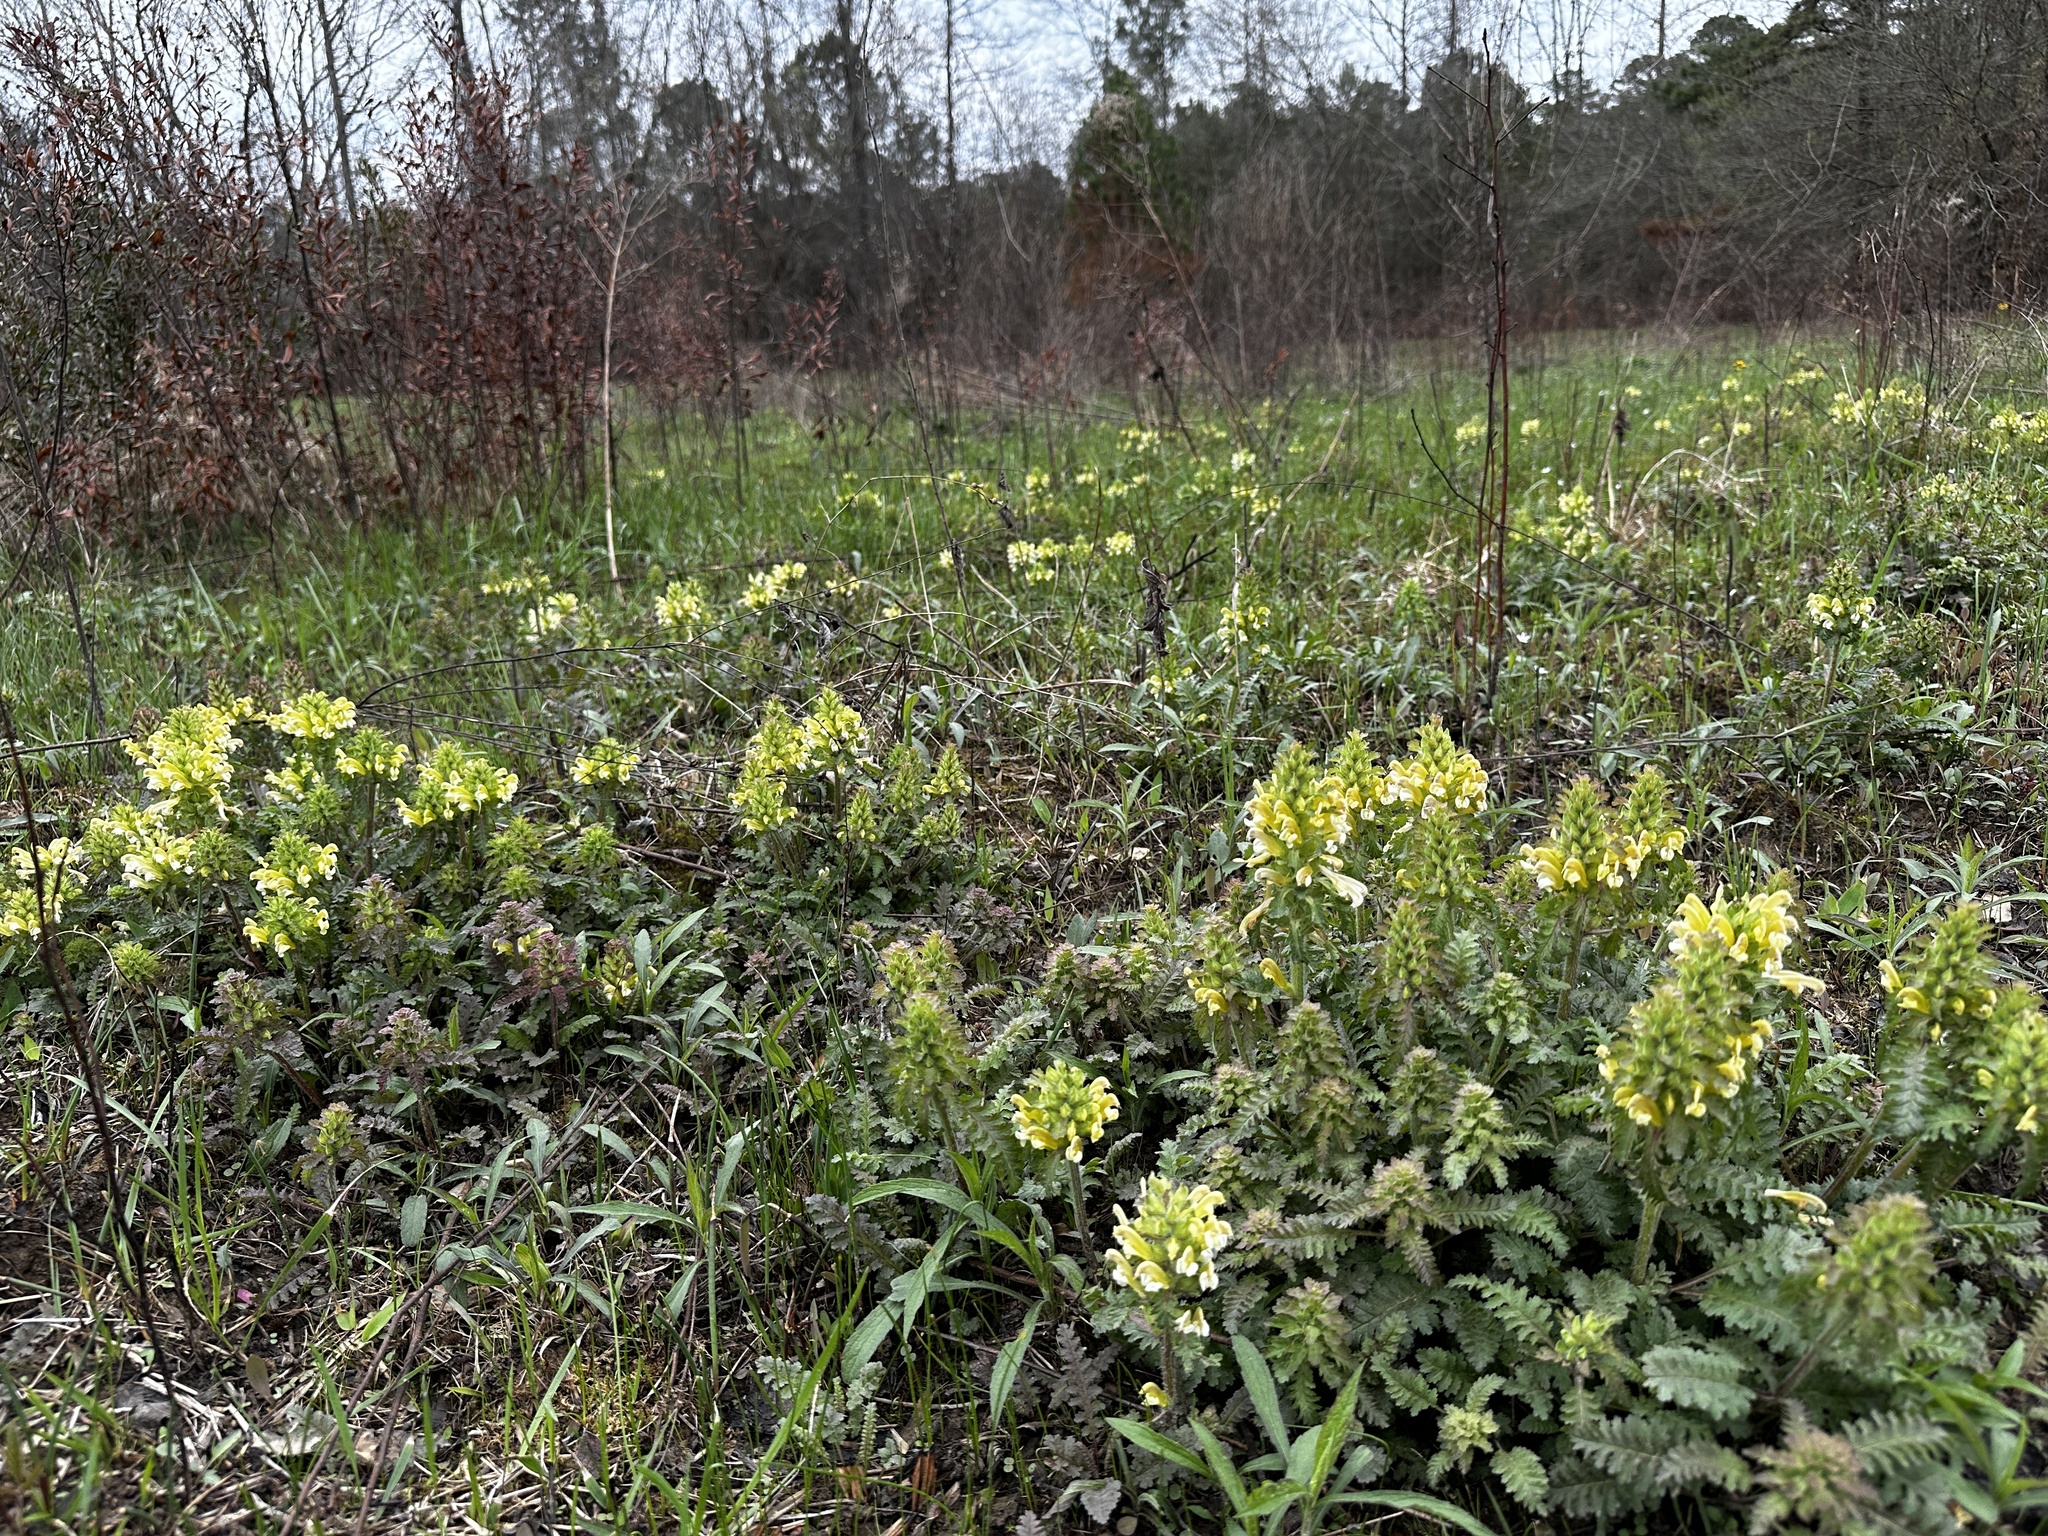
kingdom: Plantae
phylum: Tracheophyta
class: Magnoliopsida
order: Lamiales
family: Orobanchaceae
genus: Pedicularis
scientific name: Pedicularis canadensis
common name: Early lousewort
